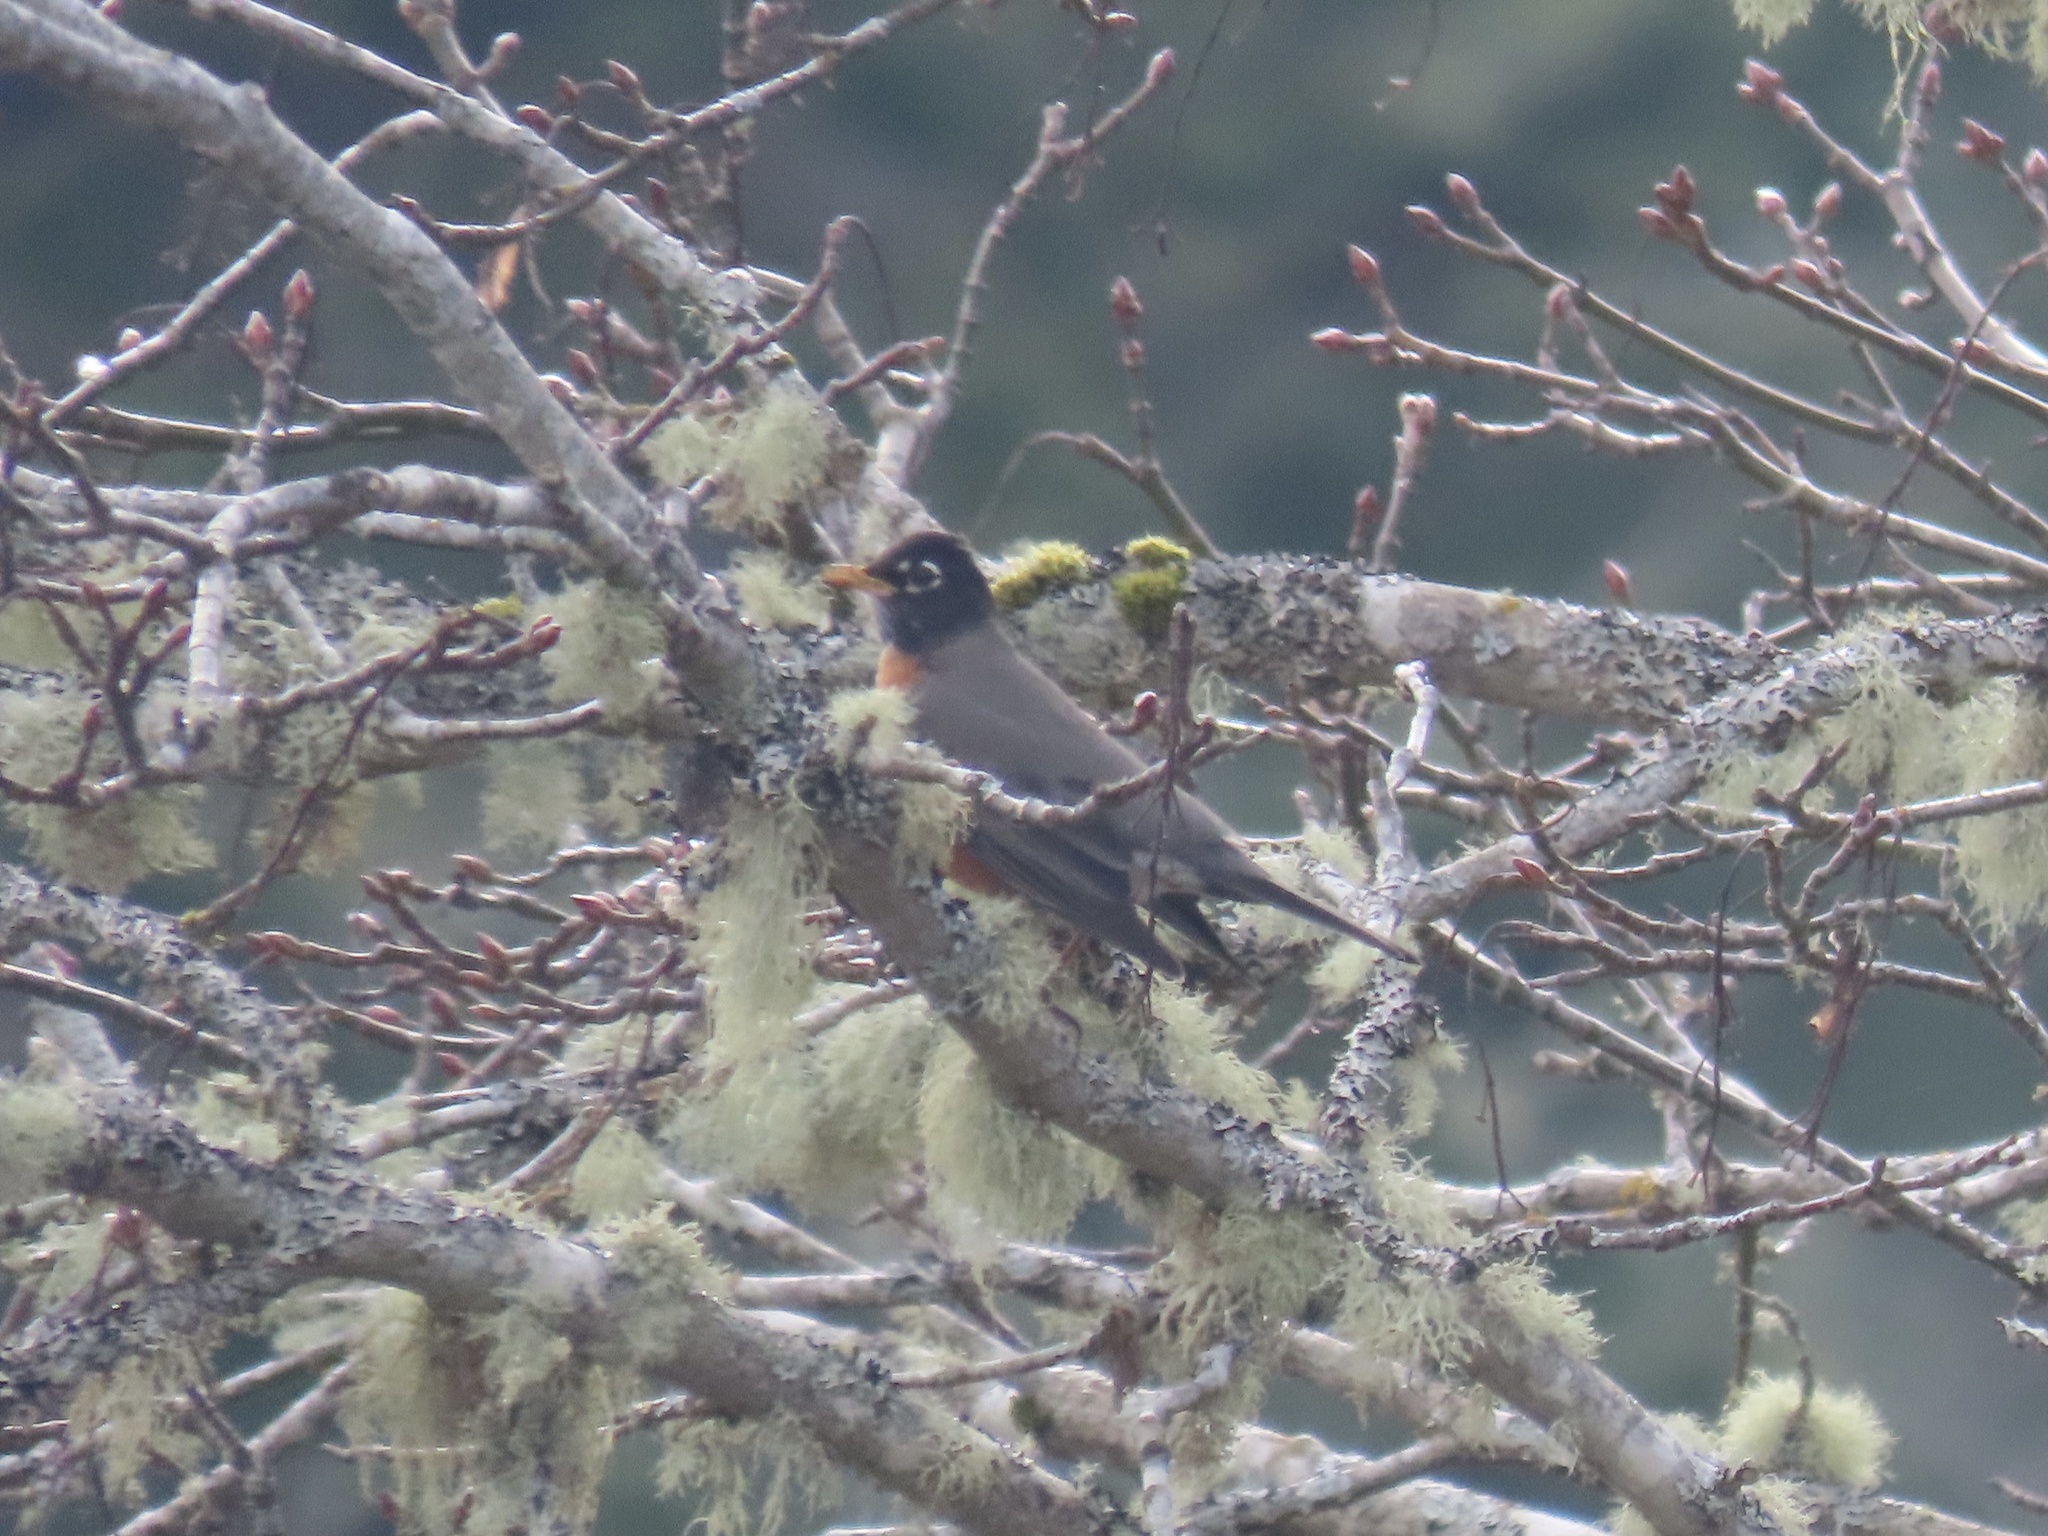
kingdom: Animalia
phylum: Chordata
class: Aves
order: Passeriformes
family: Turdidae
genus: Turdus
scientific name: Turdus migratorius
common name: American robin
